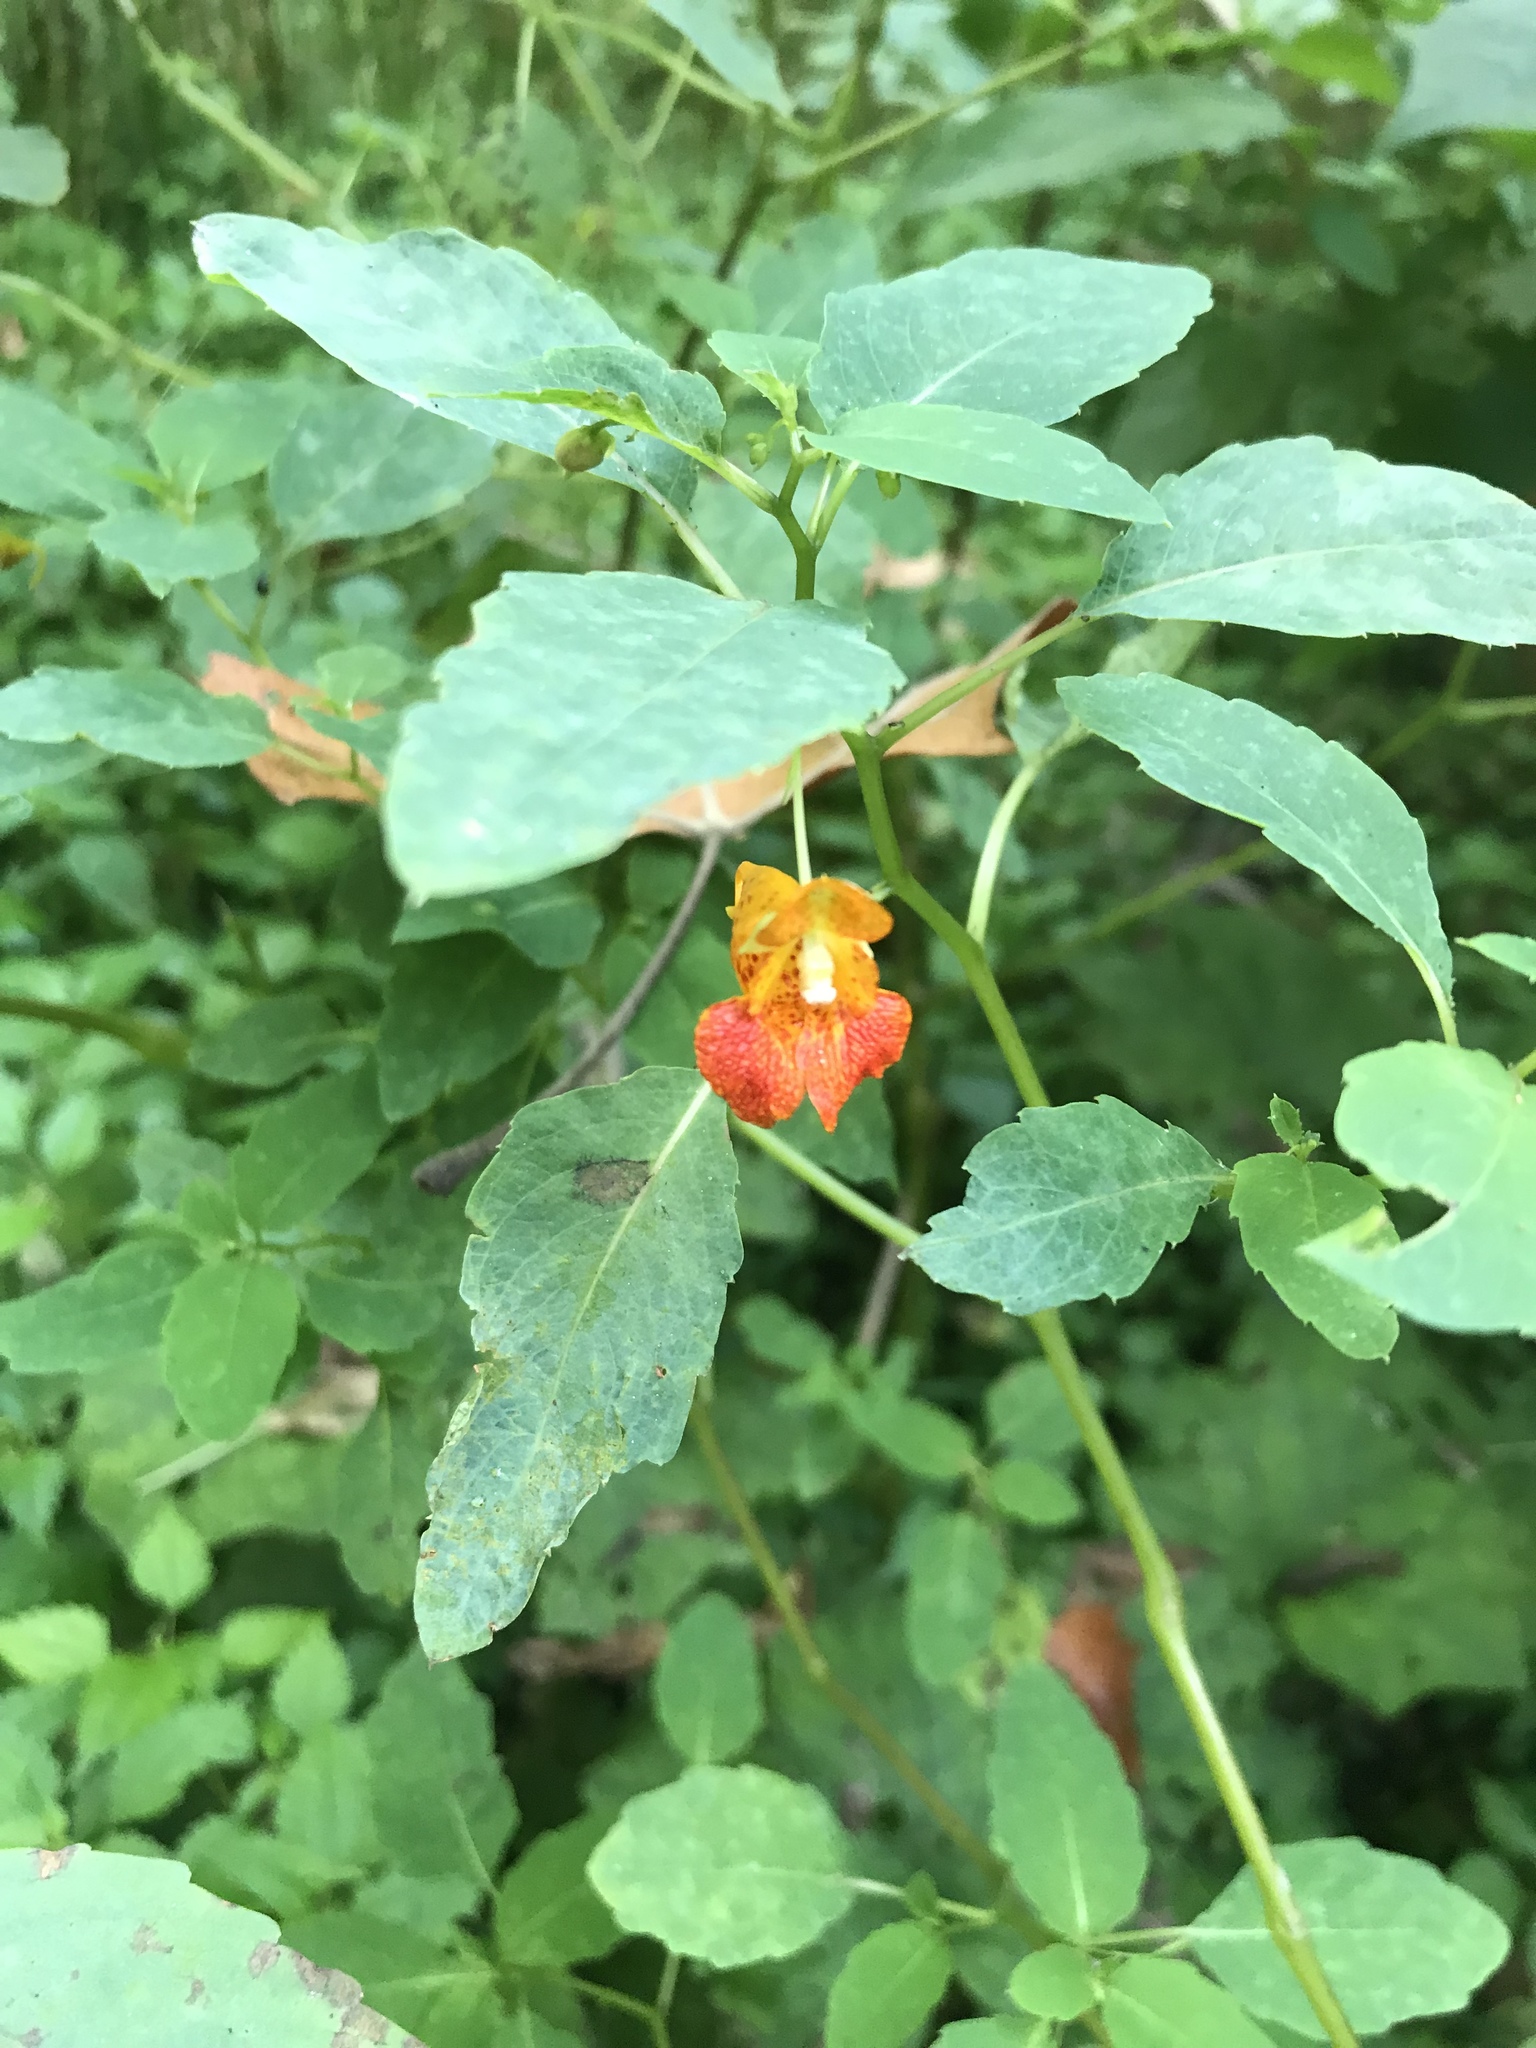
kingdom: Plantae
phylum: Tracheophyta
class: Magnoliopsida
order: Ericales
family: Balsaminaceae
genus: Impatiens
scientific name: Impatiens capensis
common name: Orange balsam
